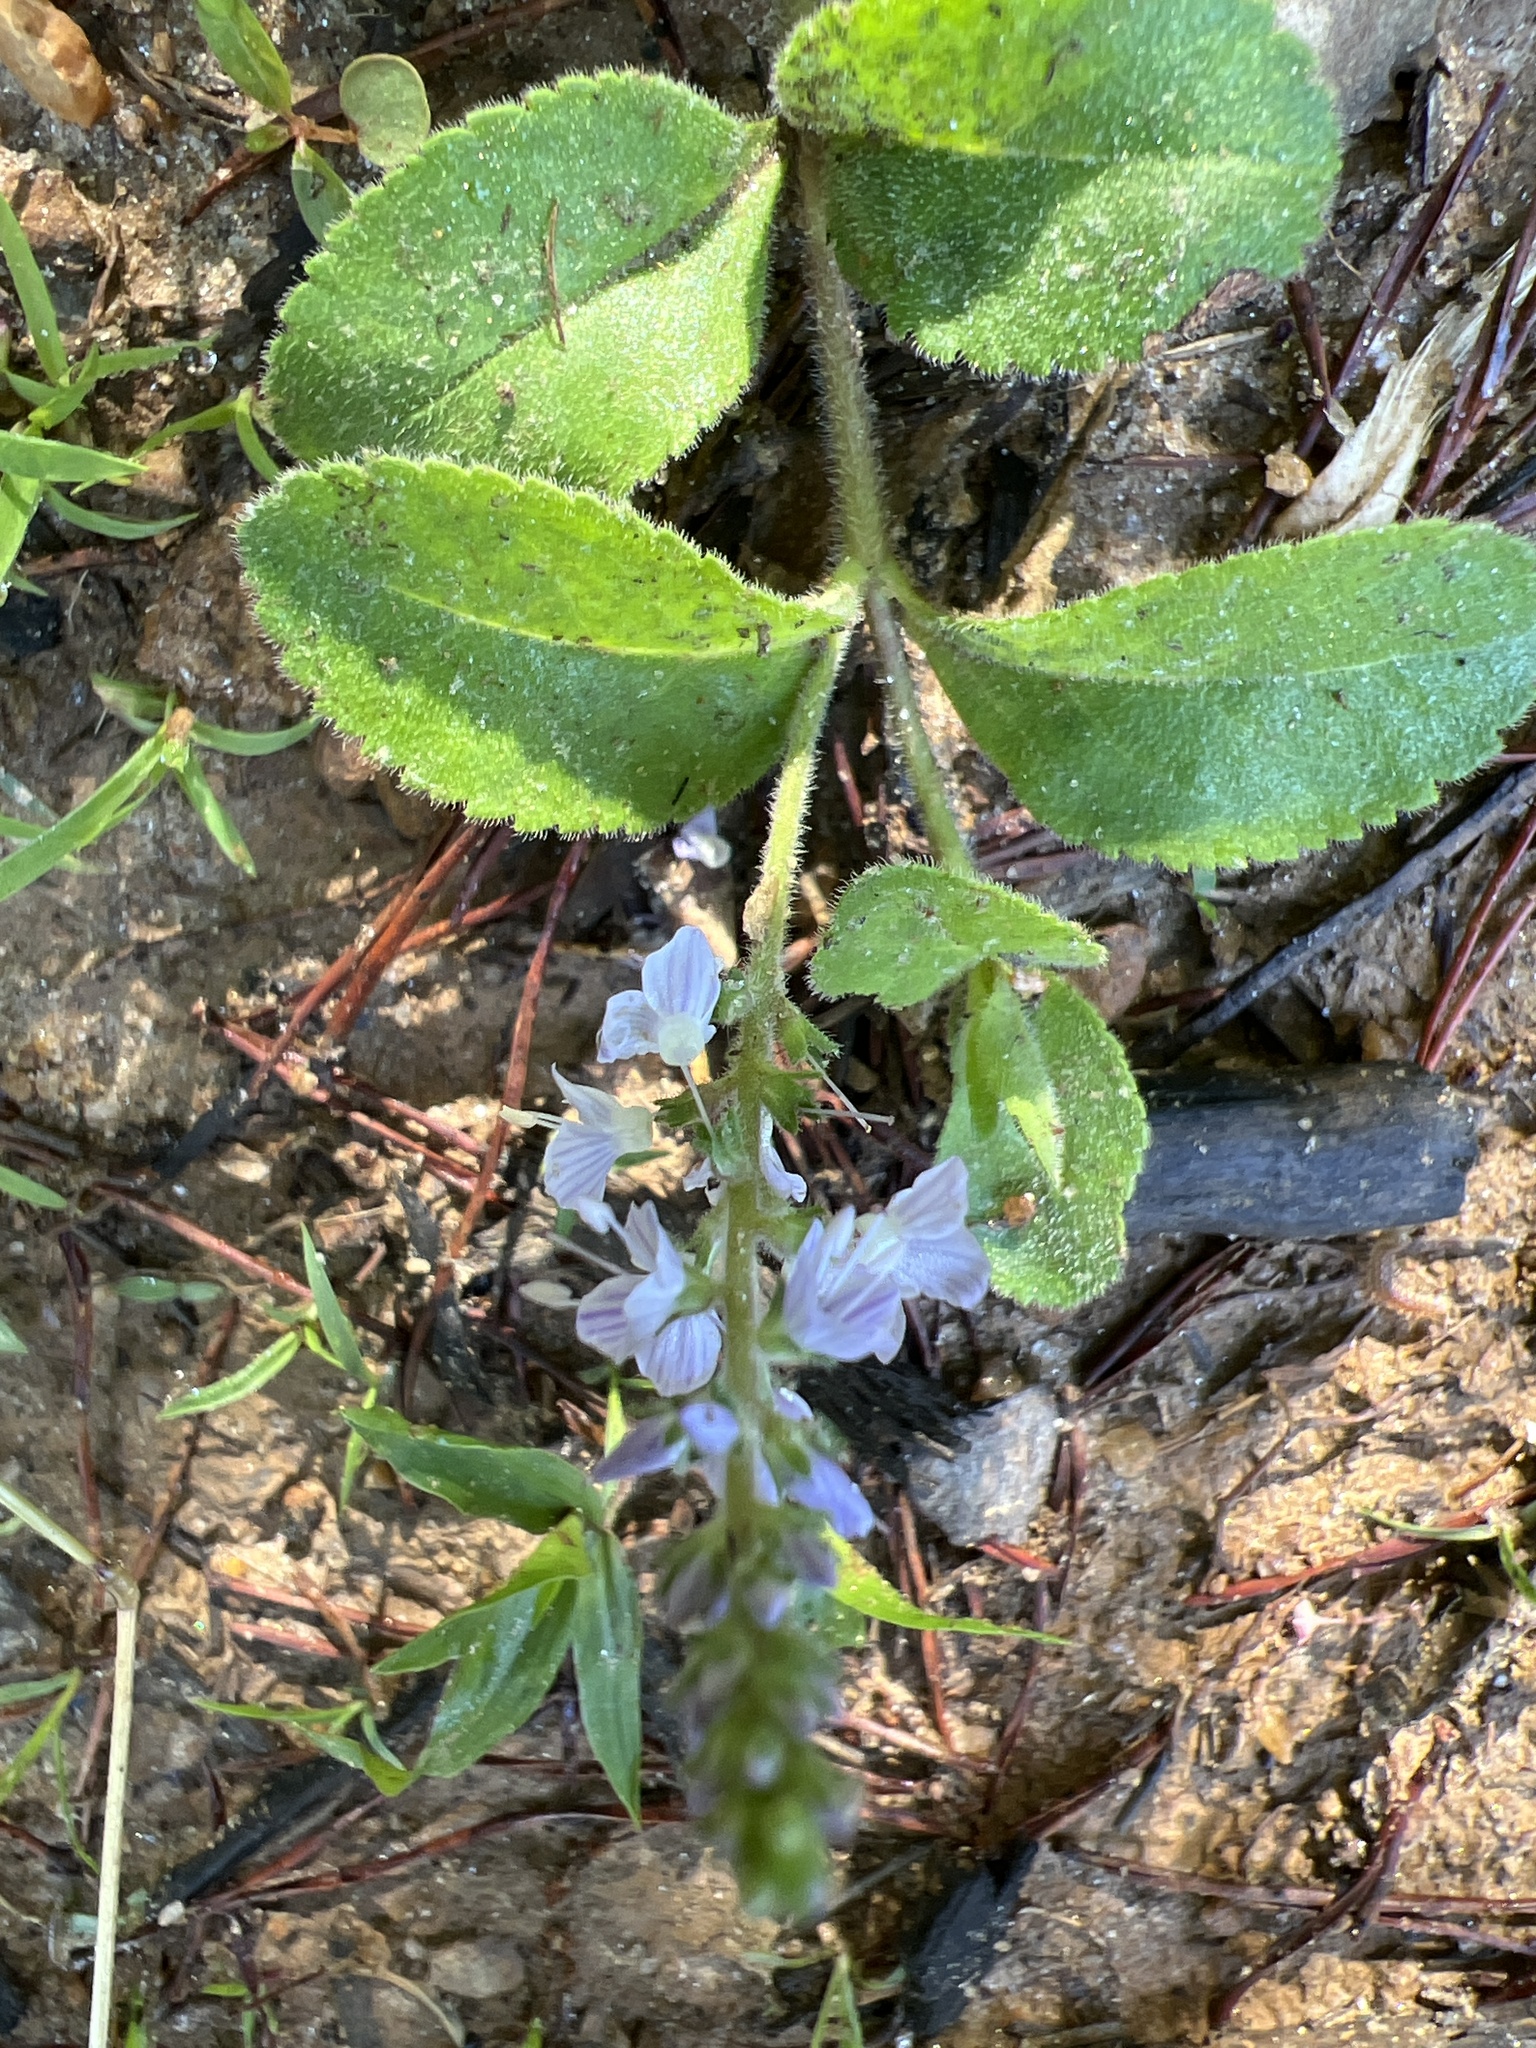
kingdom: Plantae
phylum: Tracheophyta
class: Magnoliopsida
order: Lamiales
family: Plantaginaceae
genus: Veronica
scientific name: Veronica officinalis
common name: Common speedwell
